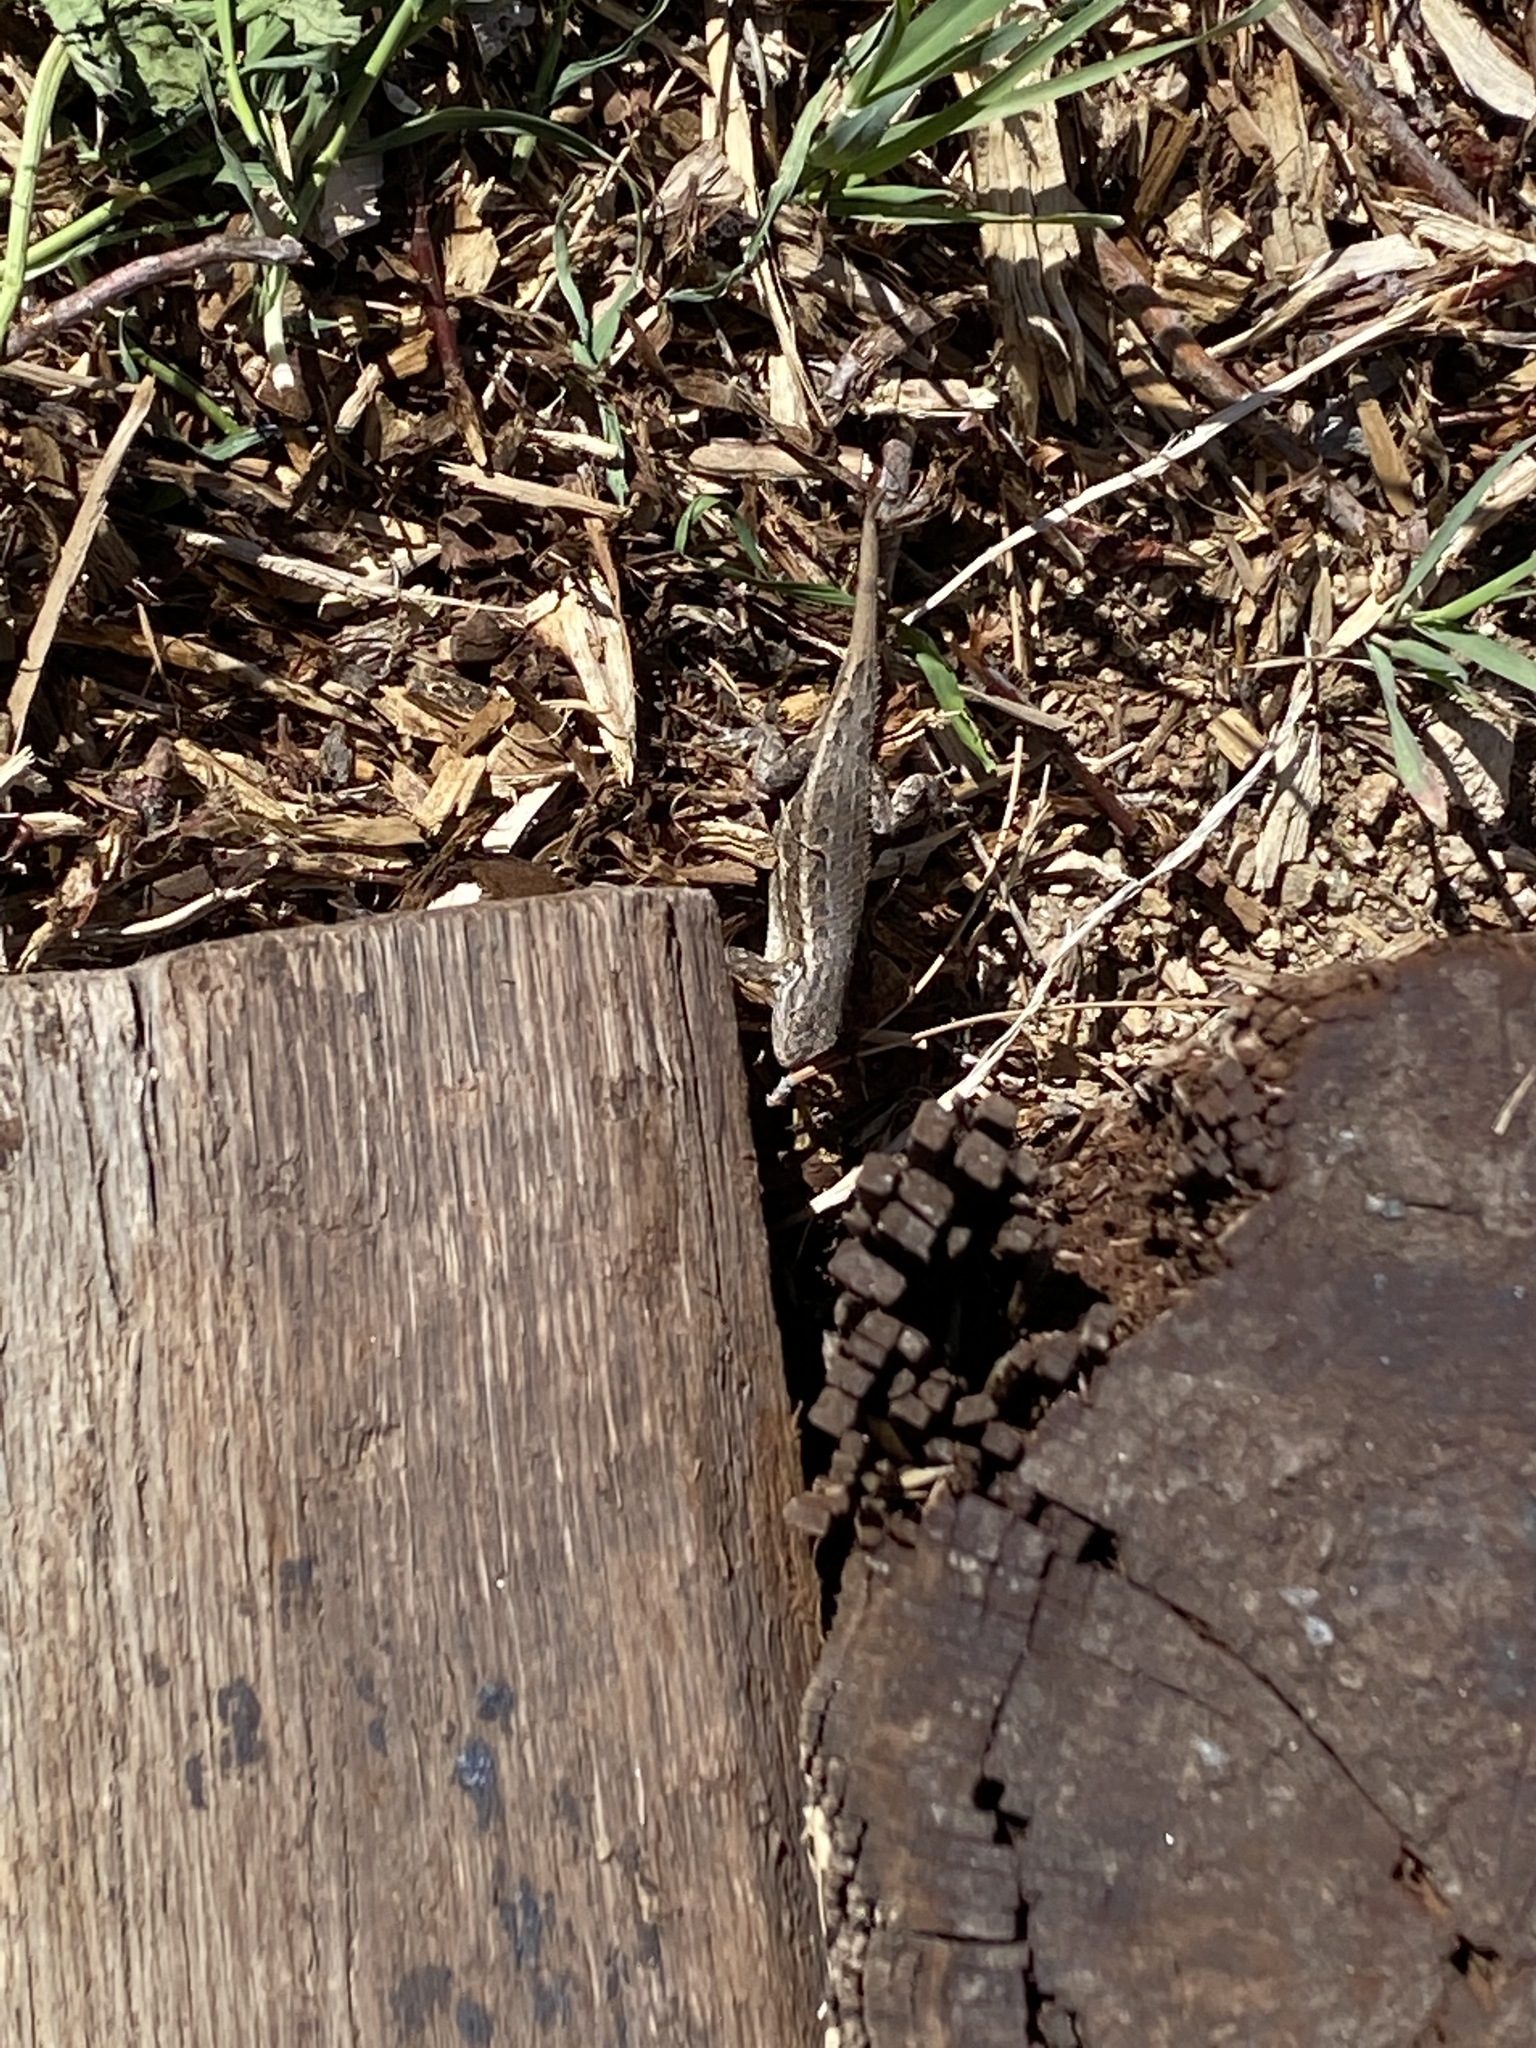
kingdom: Animalia
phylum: Chordata
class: Squamata
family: Phrynosomatidae
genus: Sceloporus
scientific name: Sceloporus cowlesi
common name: White sands prairie lizard
